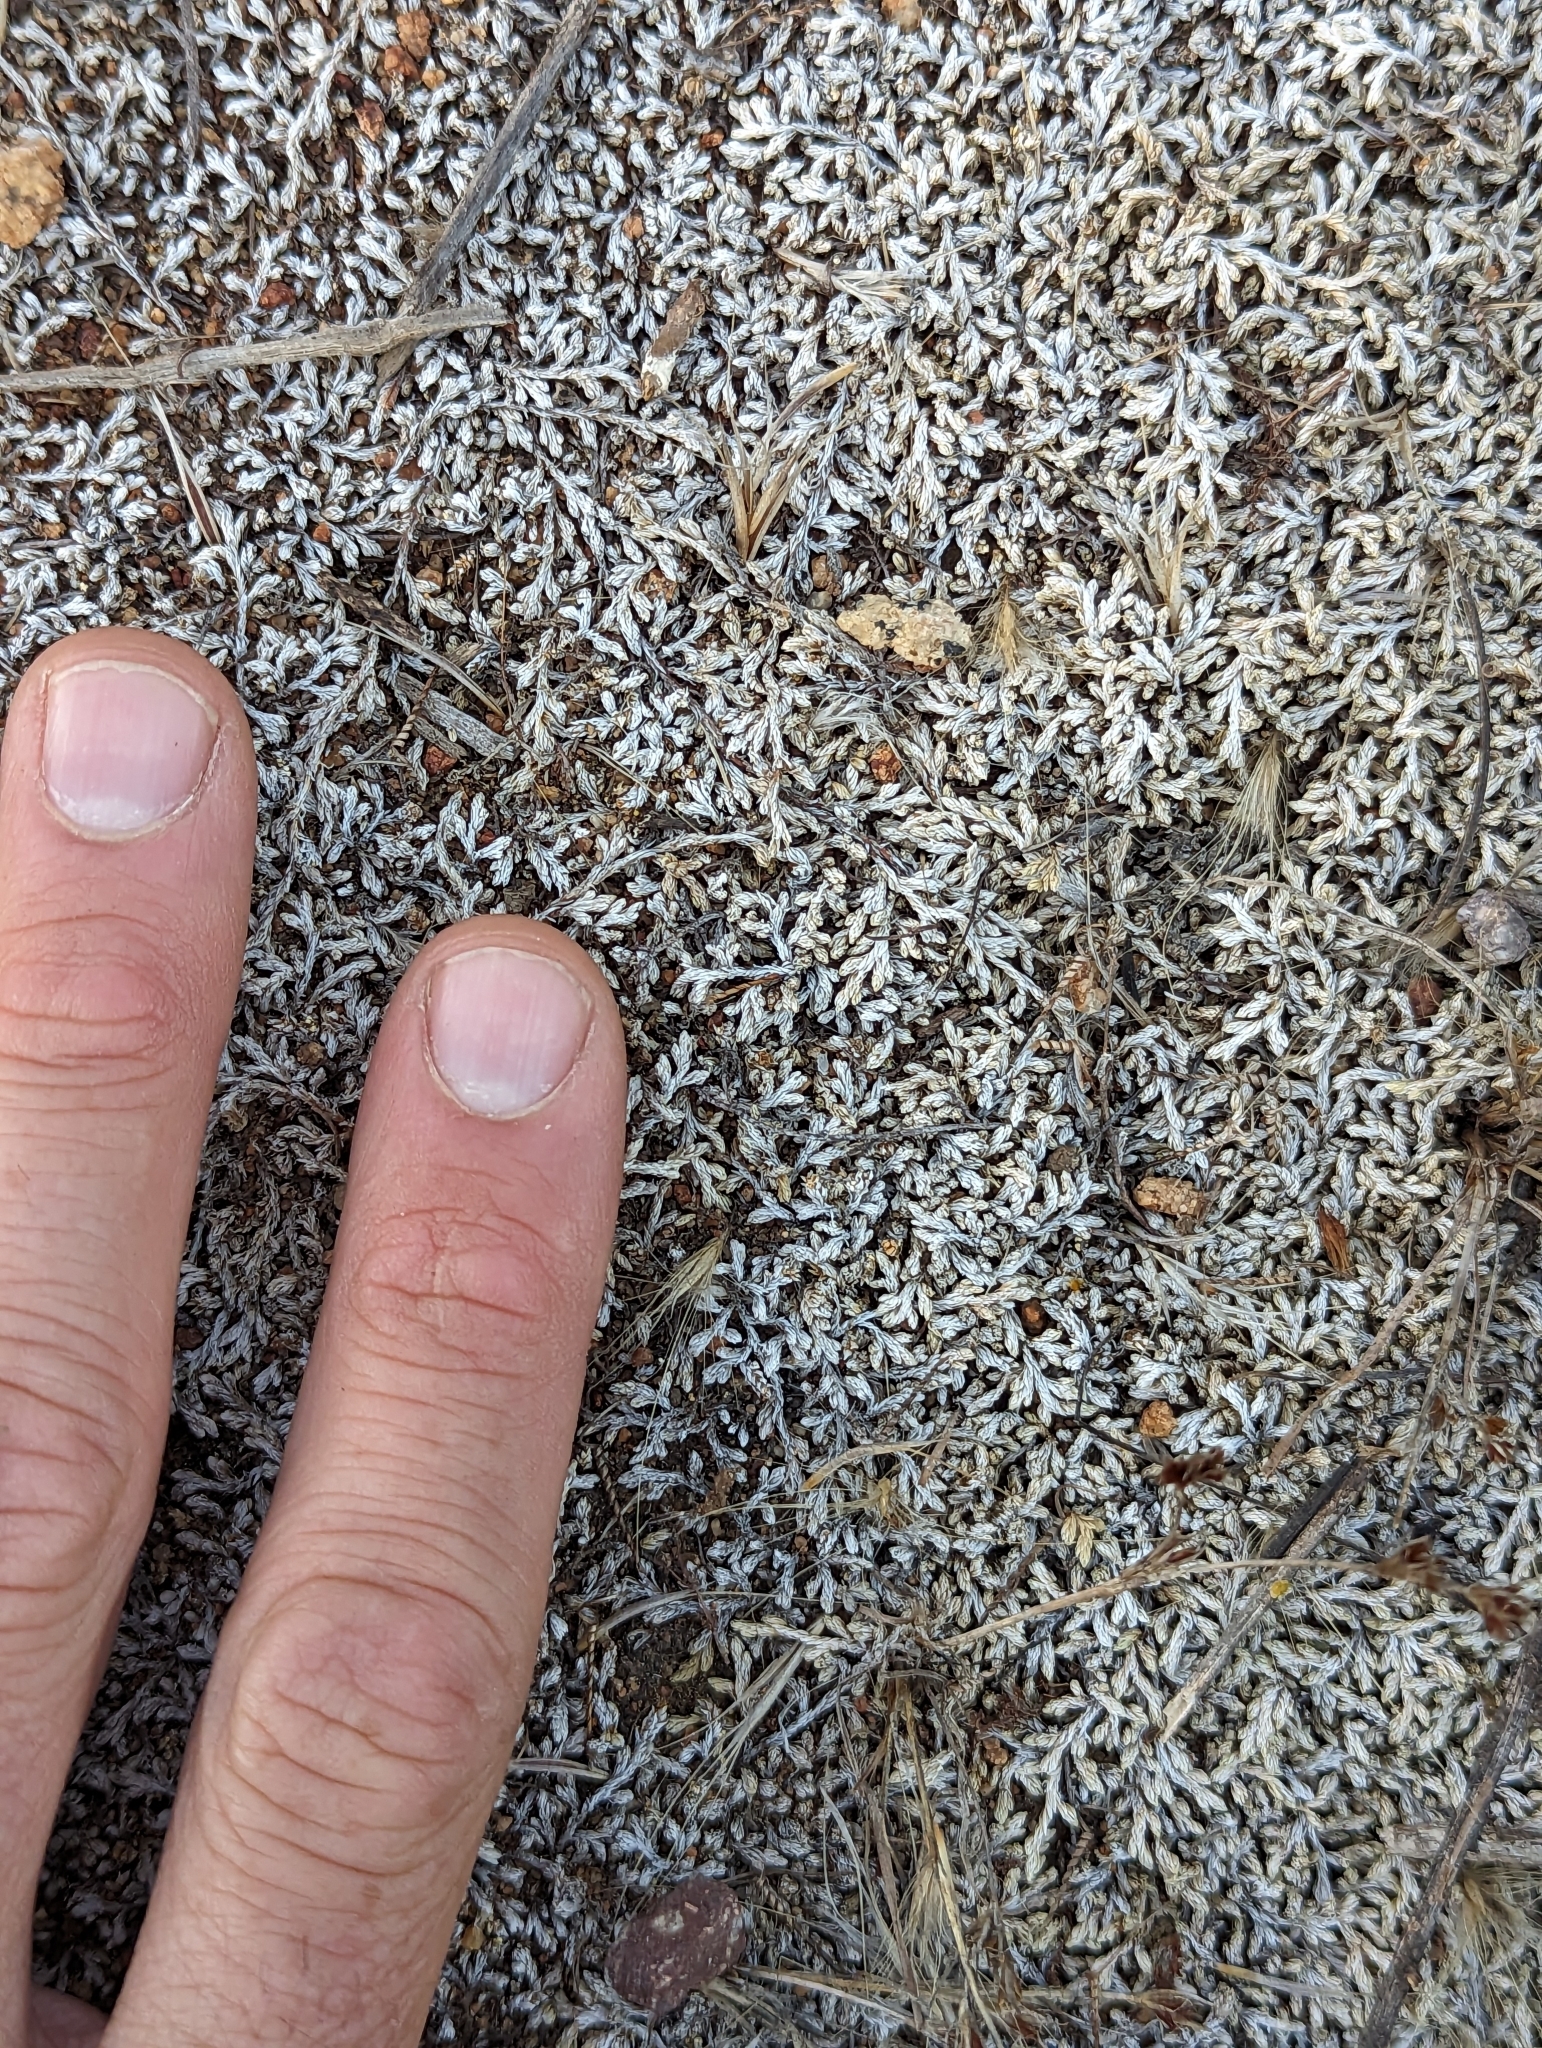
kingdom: Plantae
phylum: Tracheophyta
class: Lycopodiopsida
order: Selaginellales
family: Selaginellaceae
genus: Selaginella
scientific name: Selaginella cinerascens
